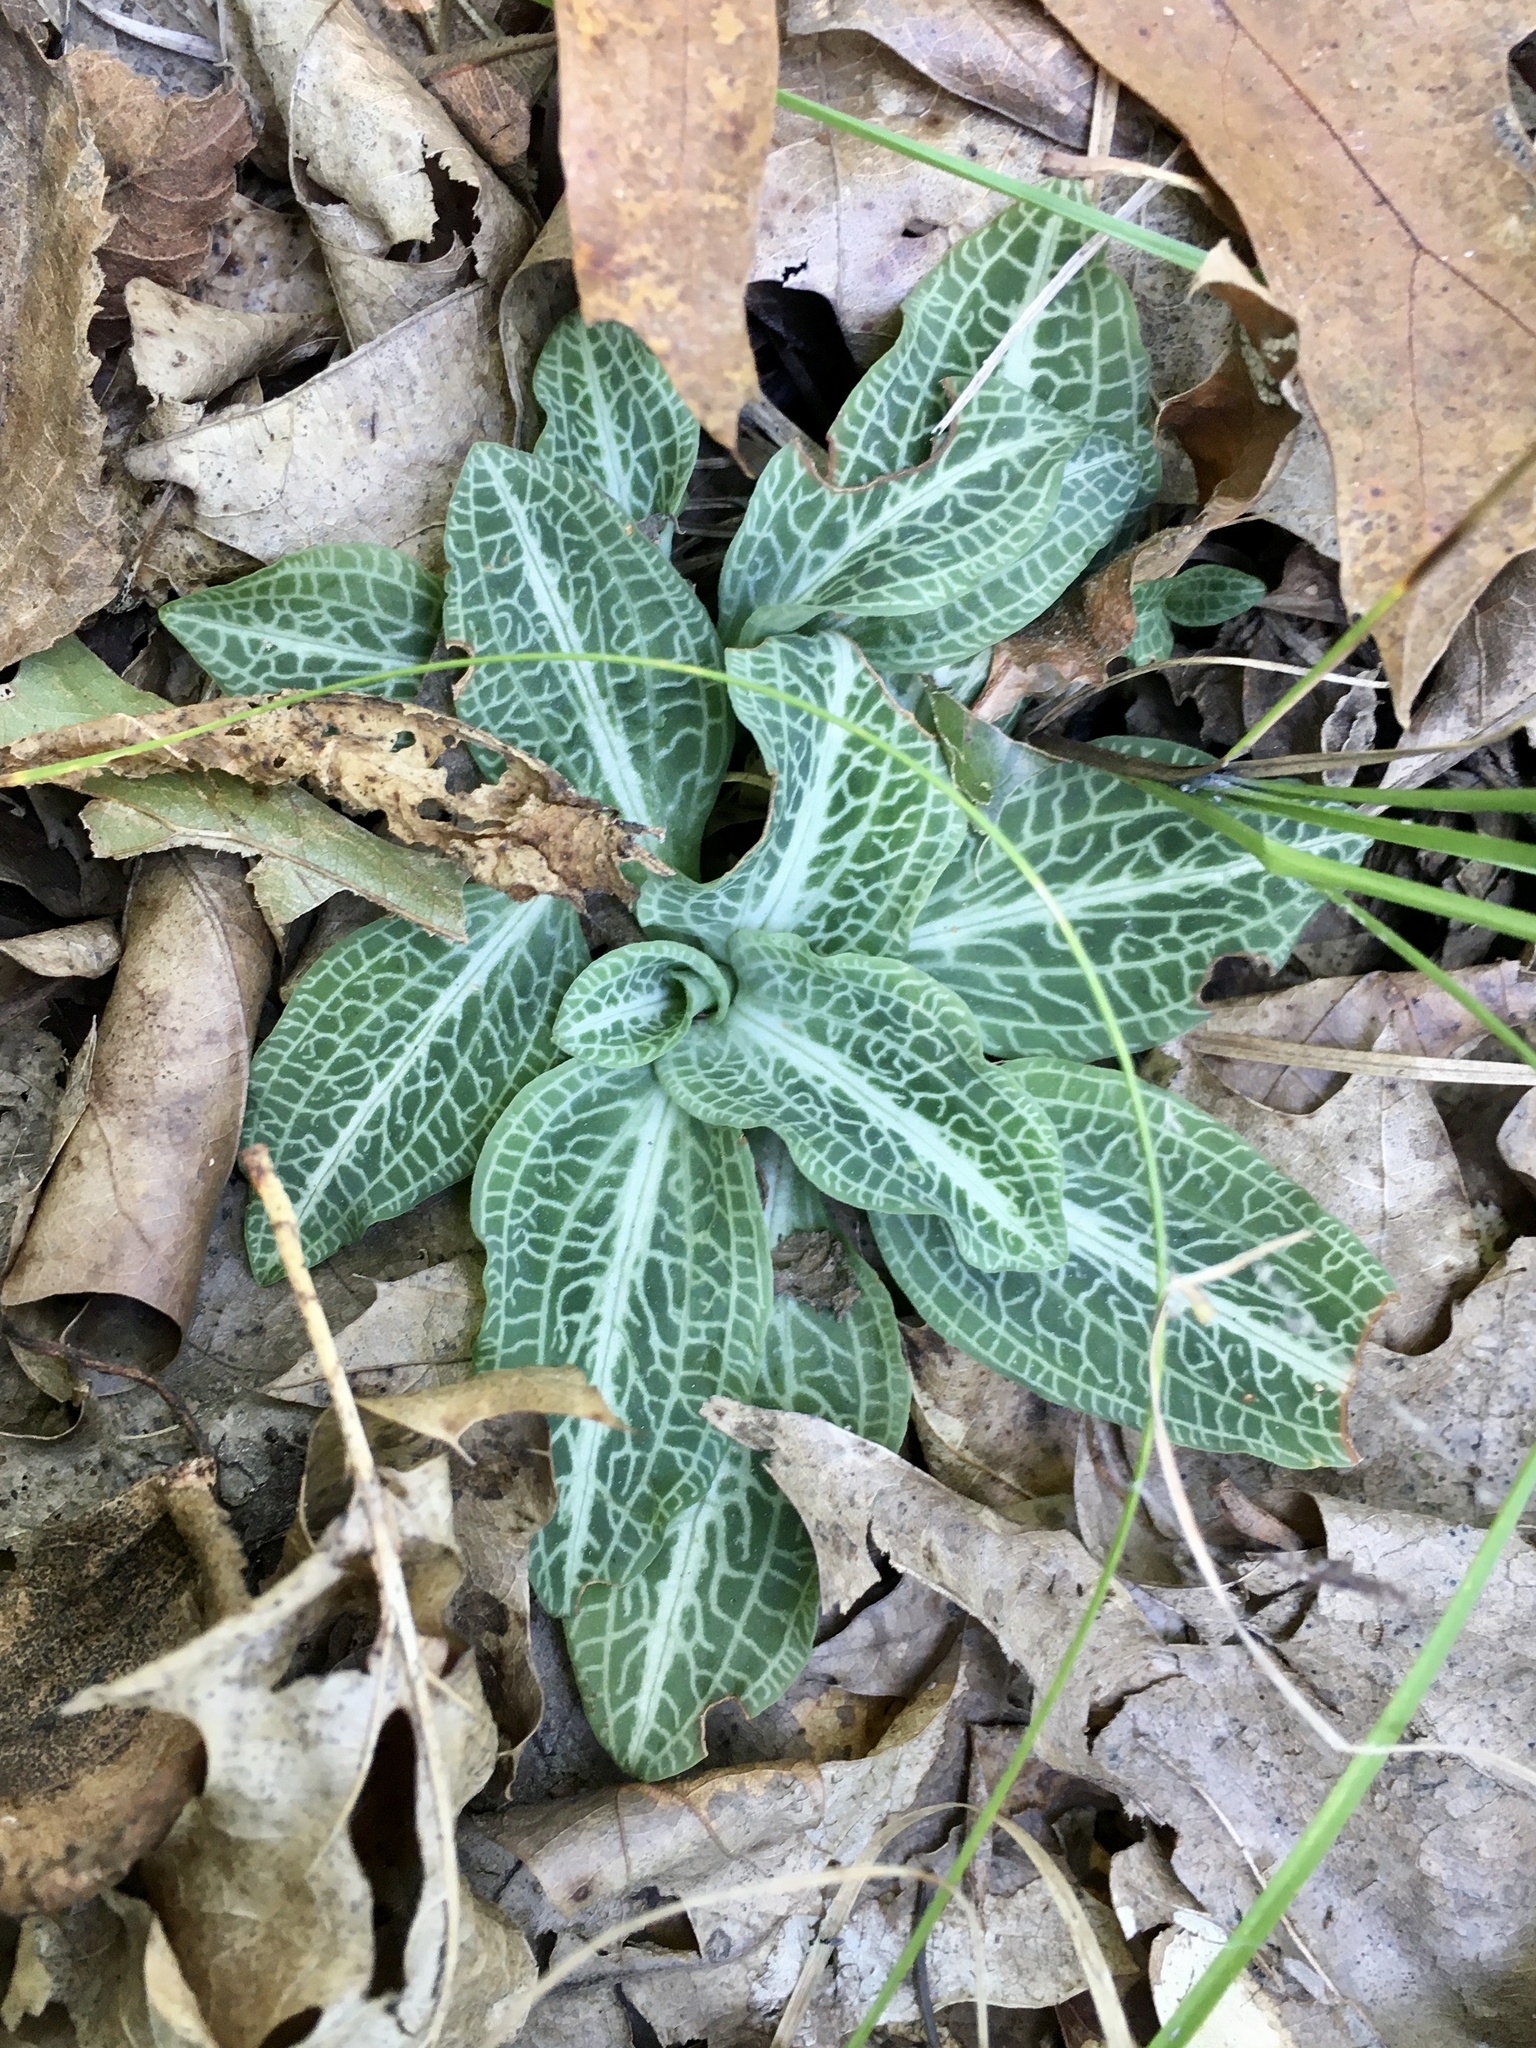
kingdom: Plantae
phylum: Tracheophyta
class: Liliopsida
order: Asparagales
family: Orchidaceae
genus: Goodyera
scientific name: Goodyera pubescens
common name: Downy rattlesnake-plantain
